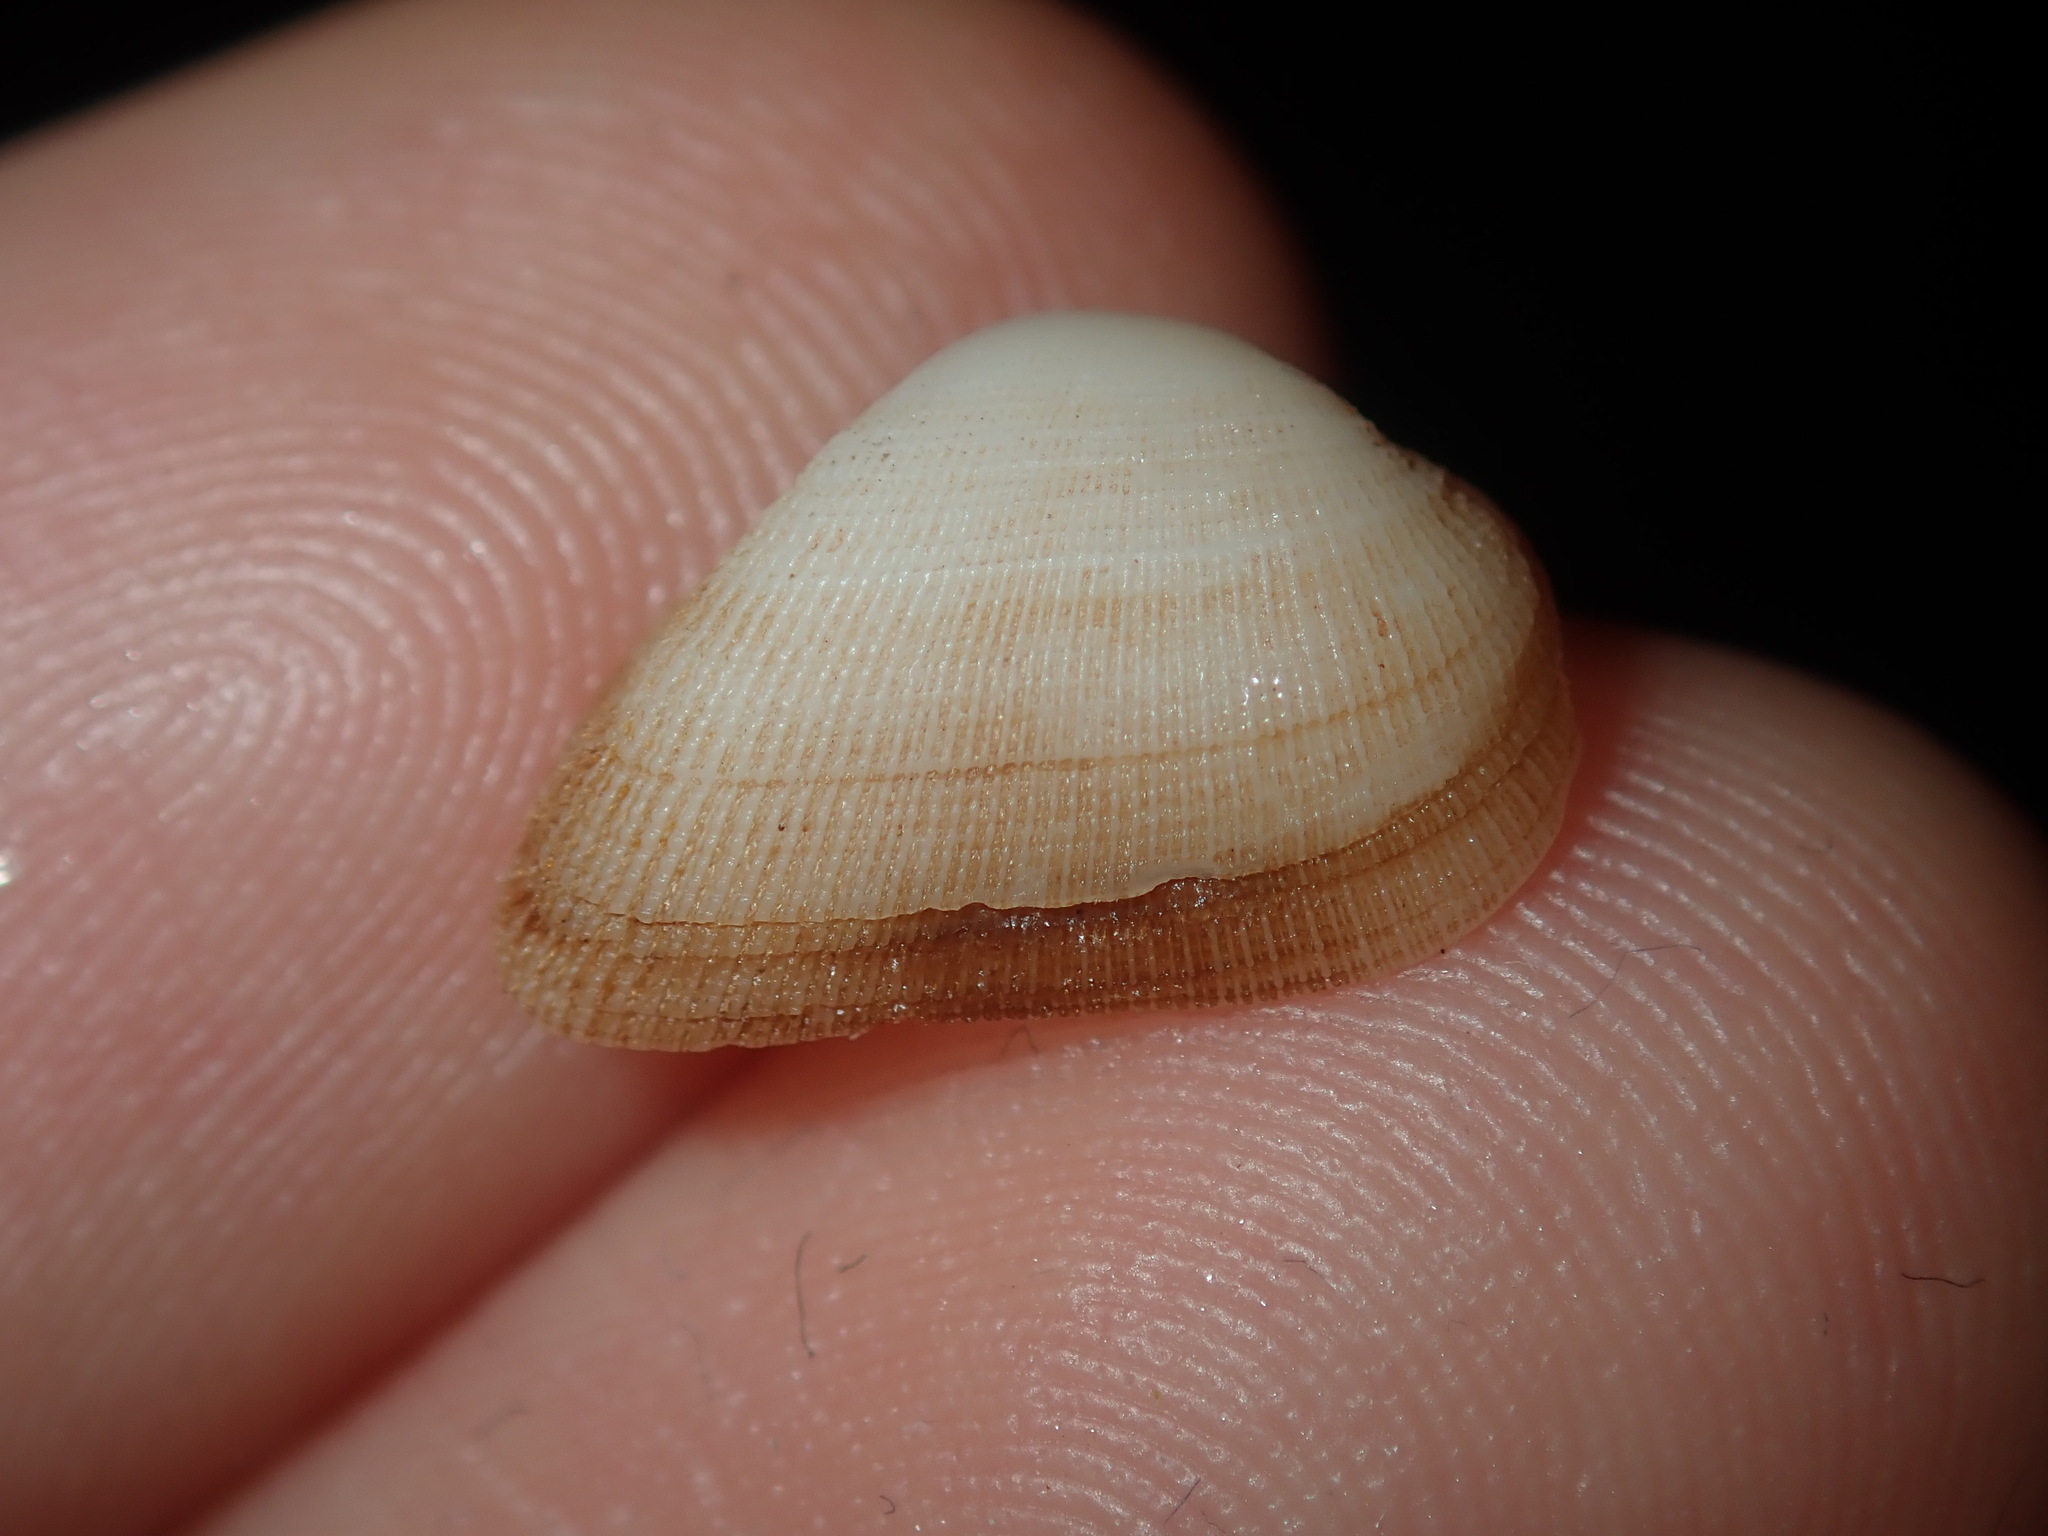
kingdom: Animalia
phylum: Mollusca
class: Bivalvia
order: Arcida
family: Noetiidae
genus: Striarca
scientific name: Striarca pisolina
